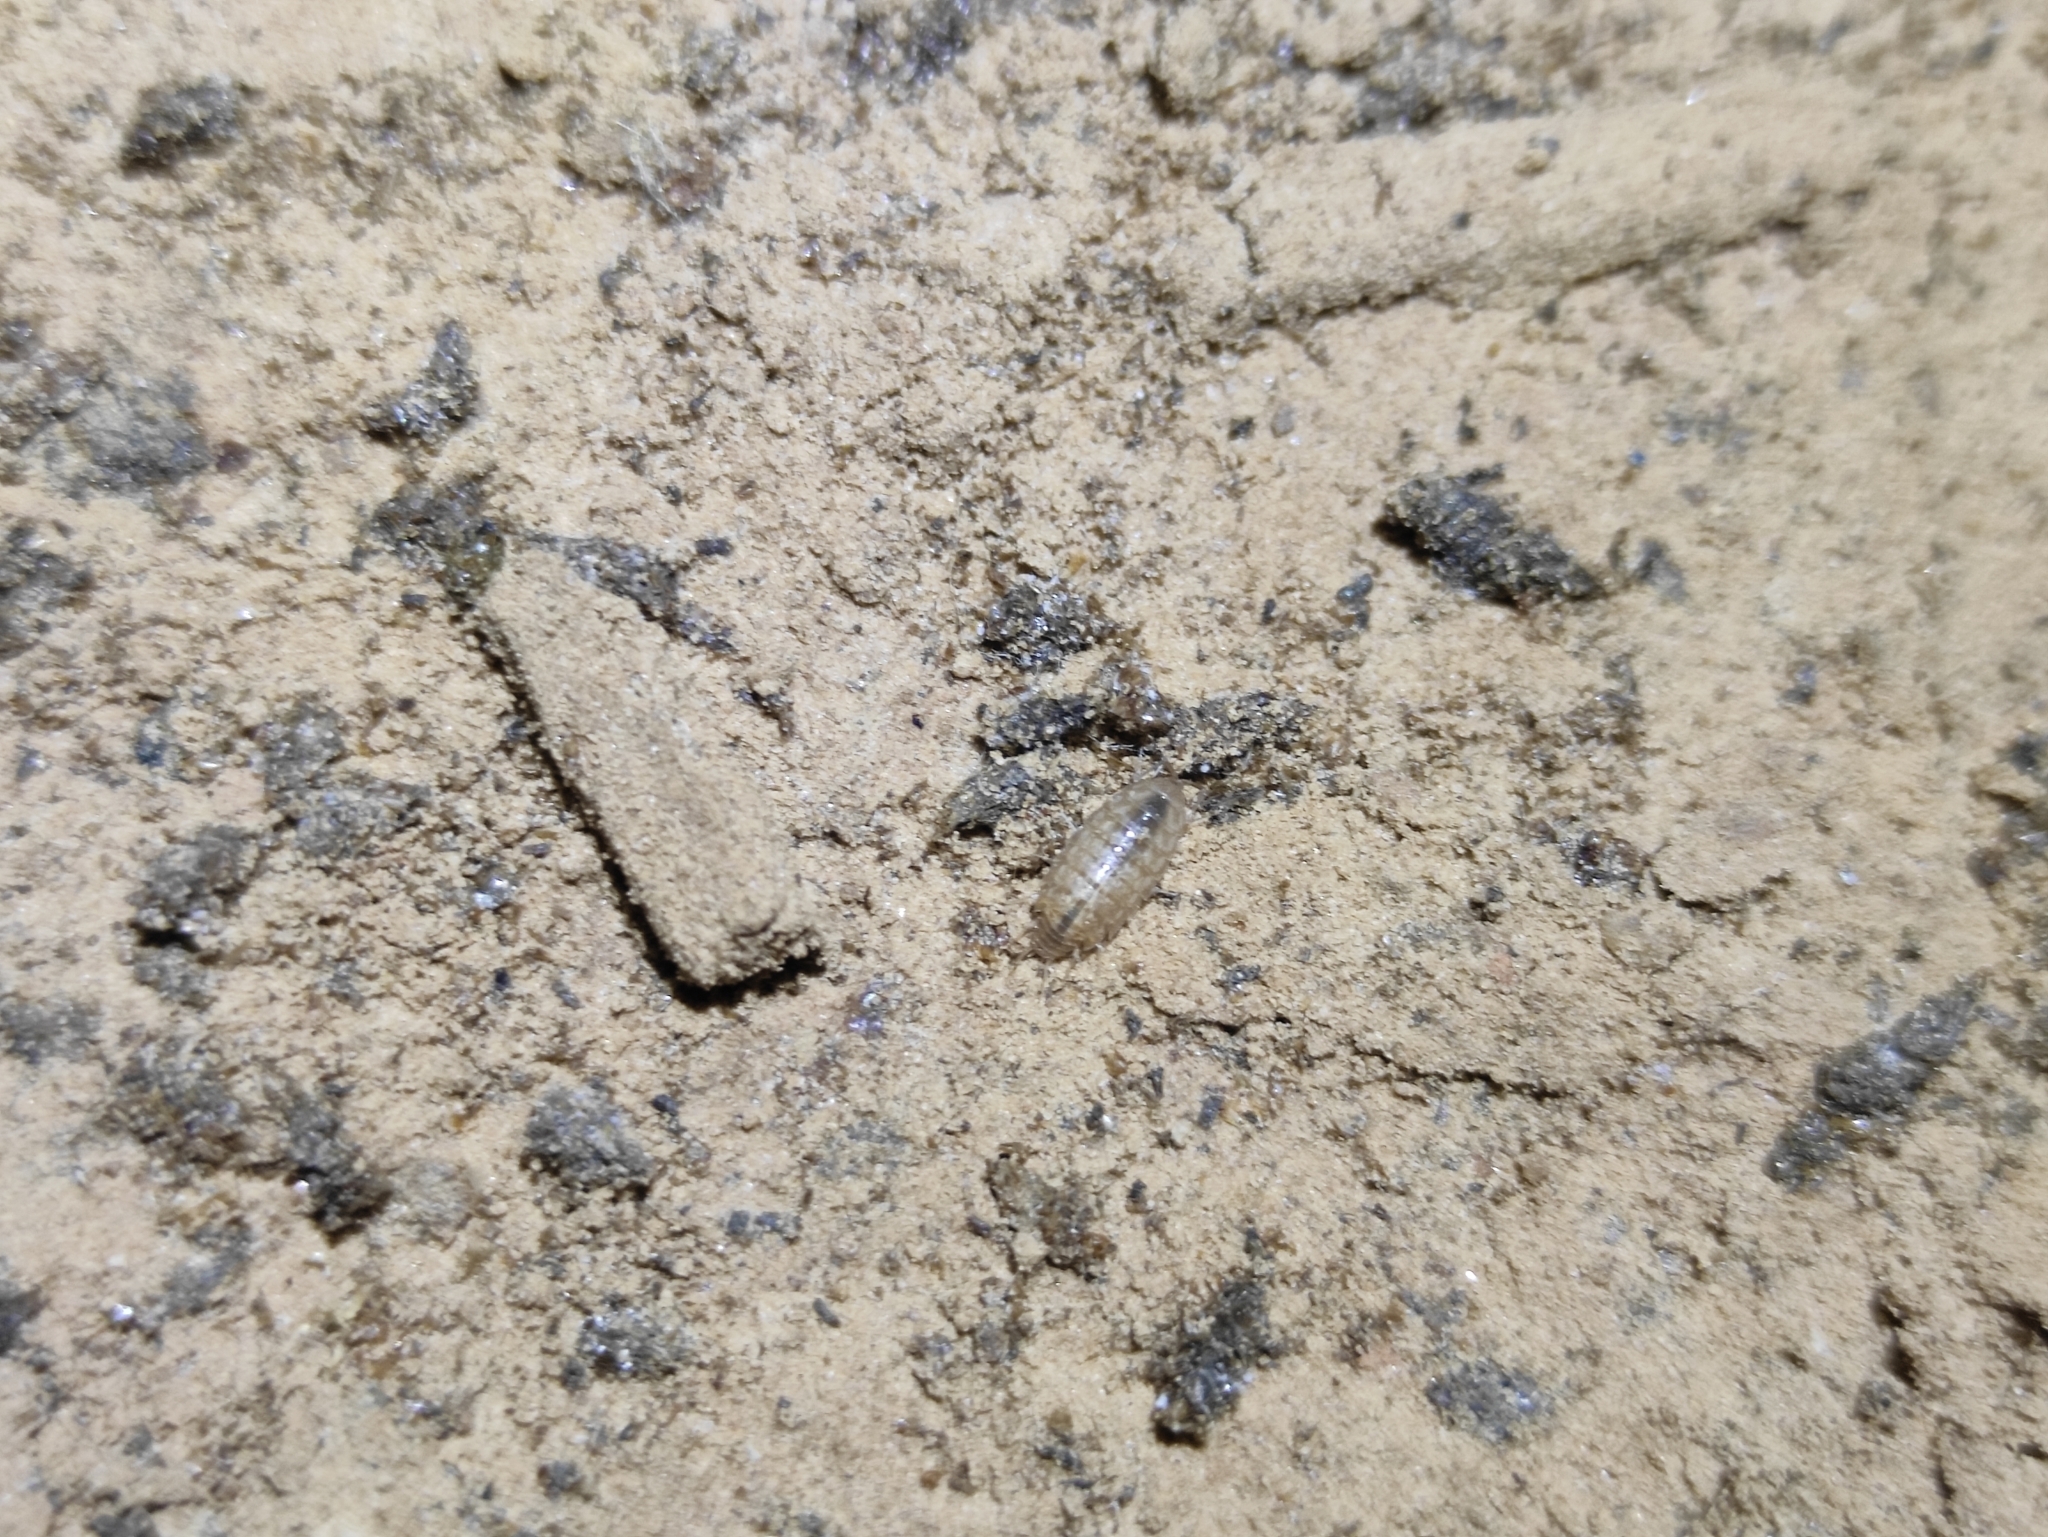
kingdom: Animalia
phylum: Arthropoda
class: Malacostraca
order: Isopoda
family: Philosciidae
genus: Chaetophiloscia
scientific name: Chaetophiloscia cellaria
